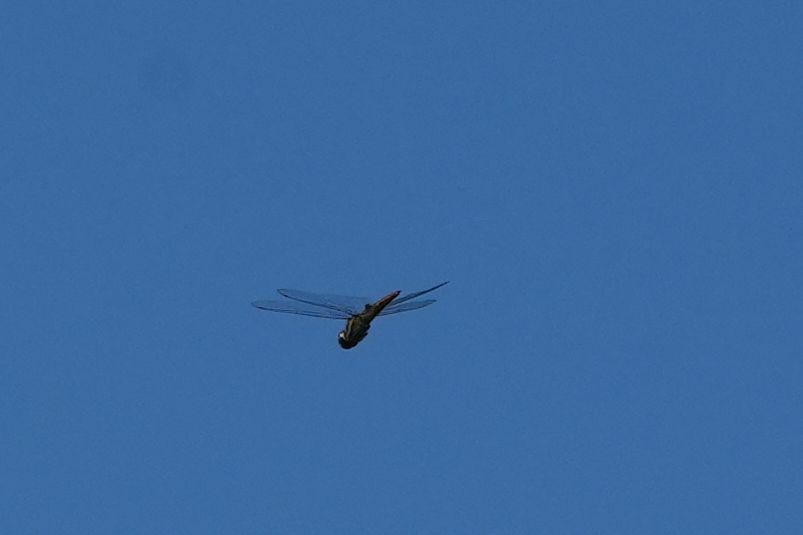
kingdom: Animalia
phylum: Arthropoda
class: Insecta
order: Odonata
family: Libellulidae
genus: Pantala
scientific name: Pantala hymenaea
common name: Spot-winged glider
